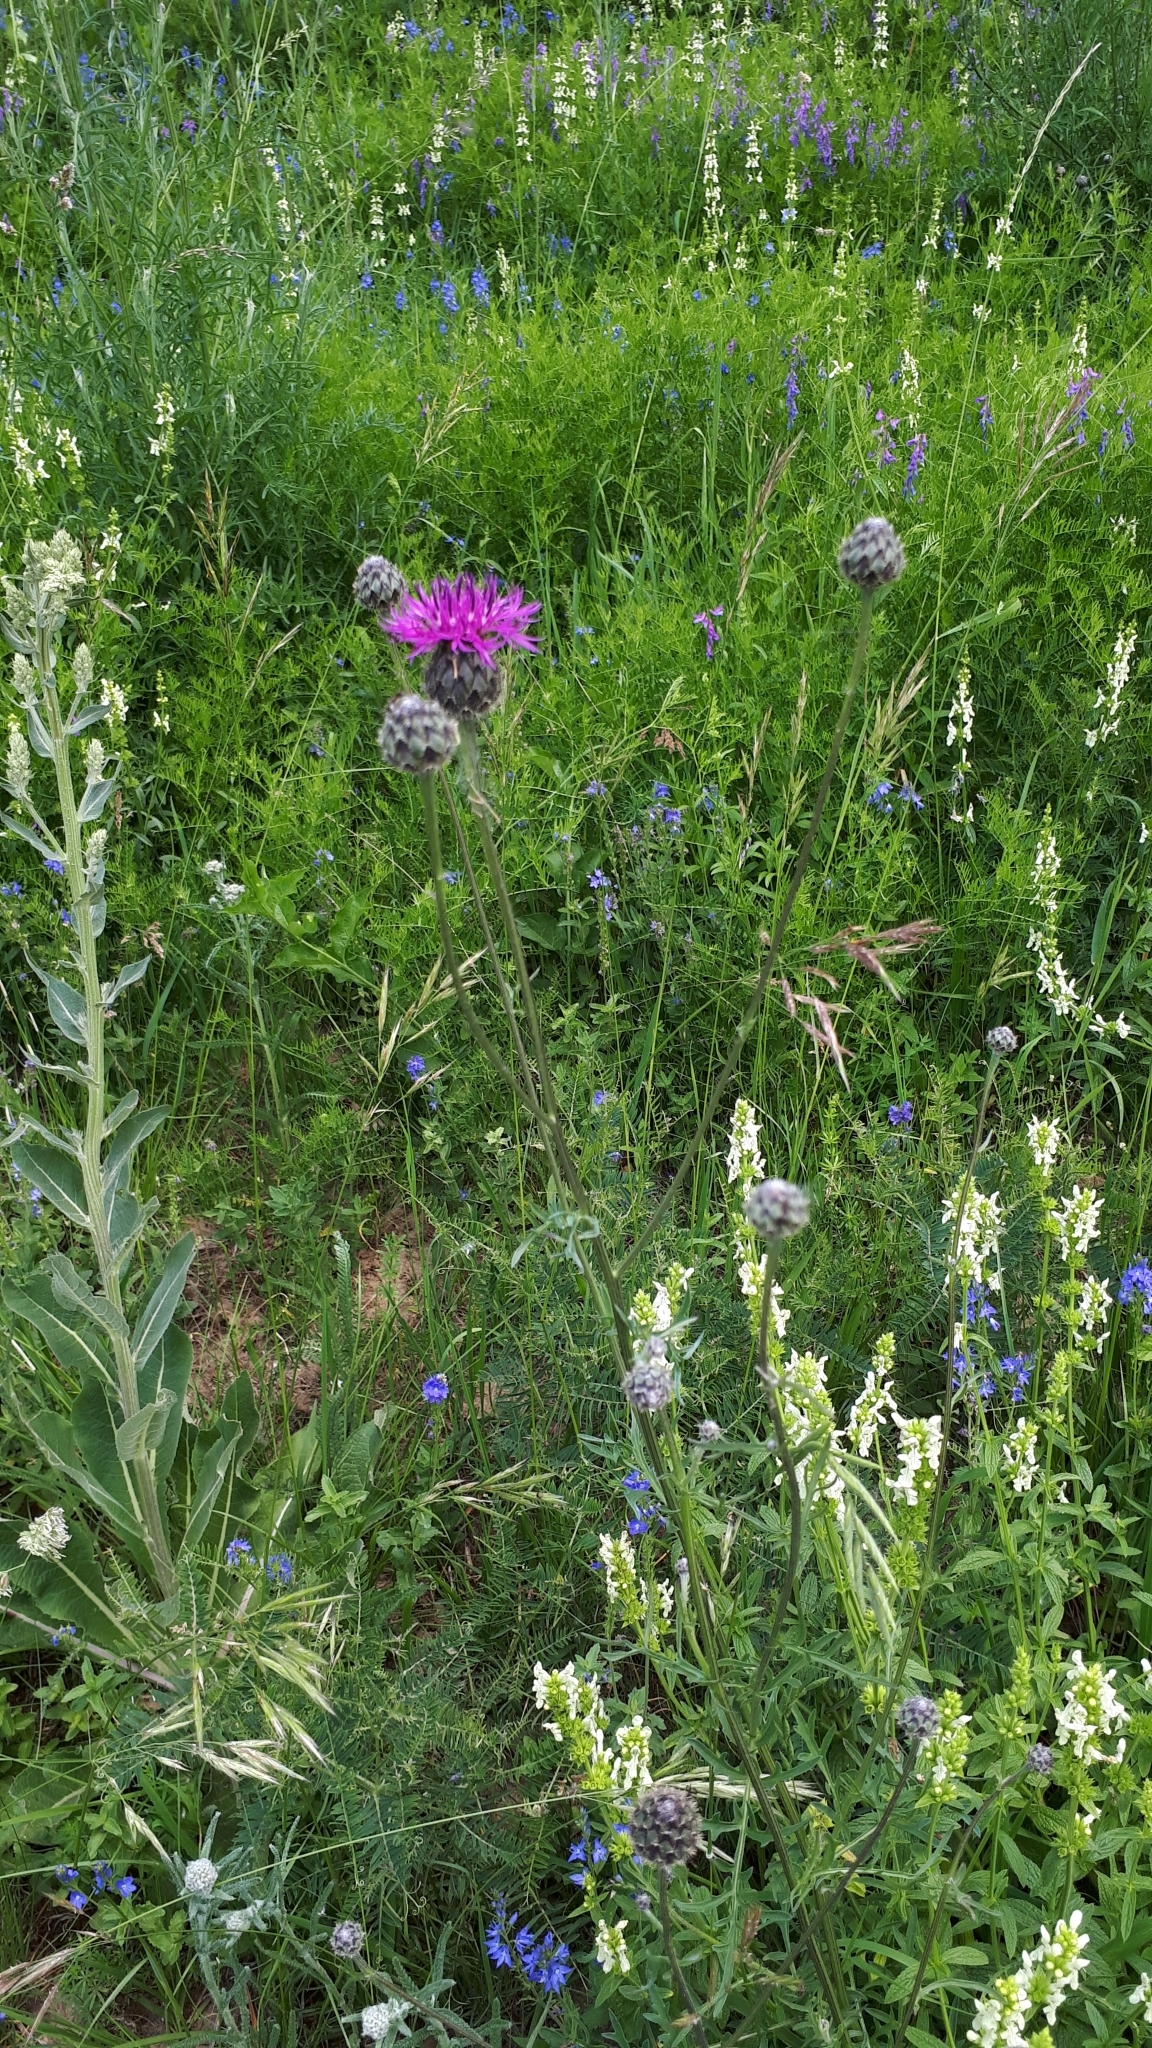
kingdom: Plantae
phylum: Tracheophyta
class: Magnoliopsida
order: Asterales
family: Asteraceae
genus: Centaurea
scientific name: Centaurea scabiosa
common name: Greater knapweed
